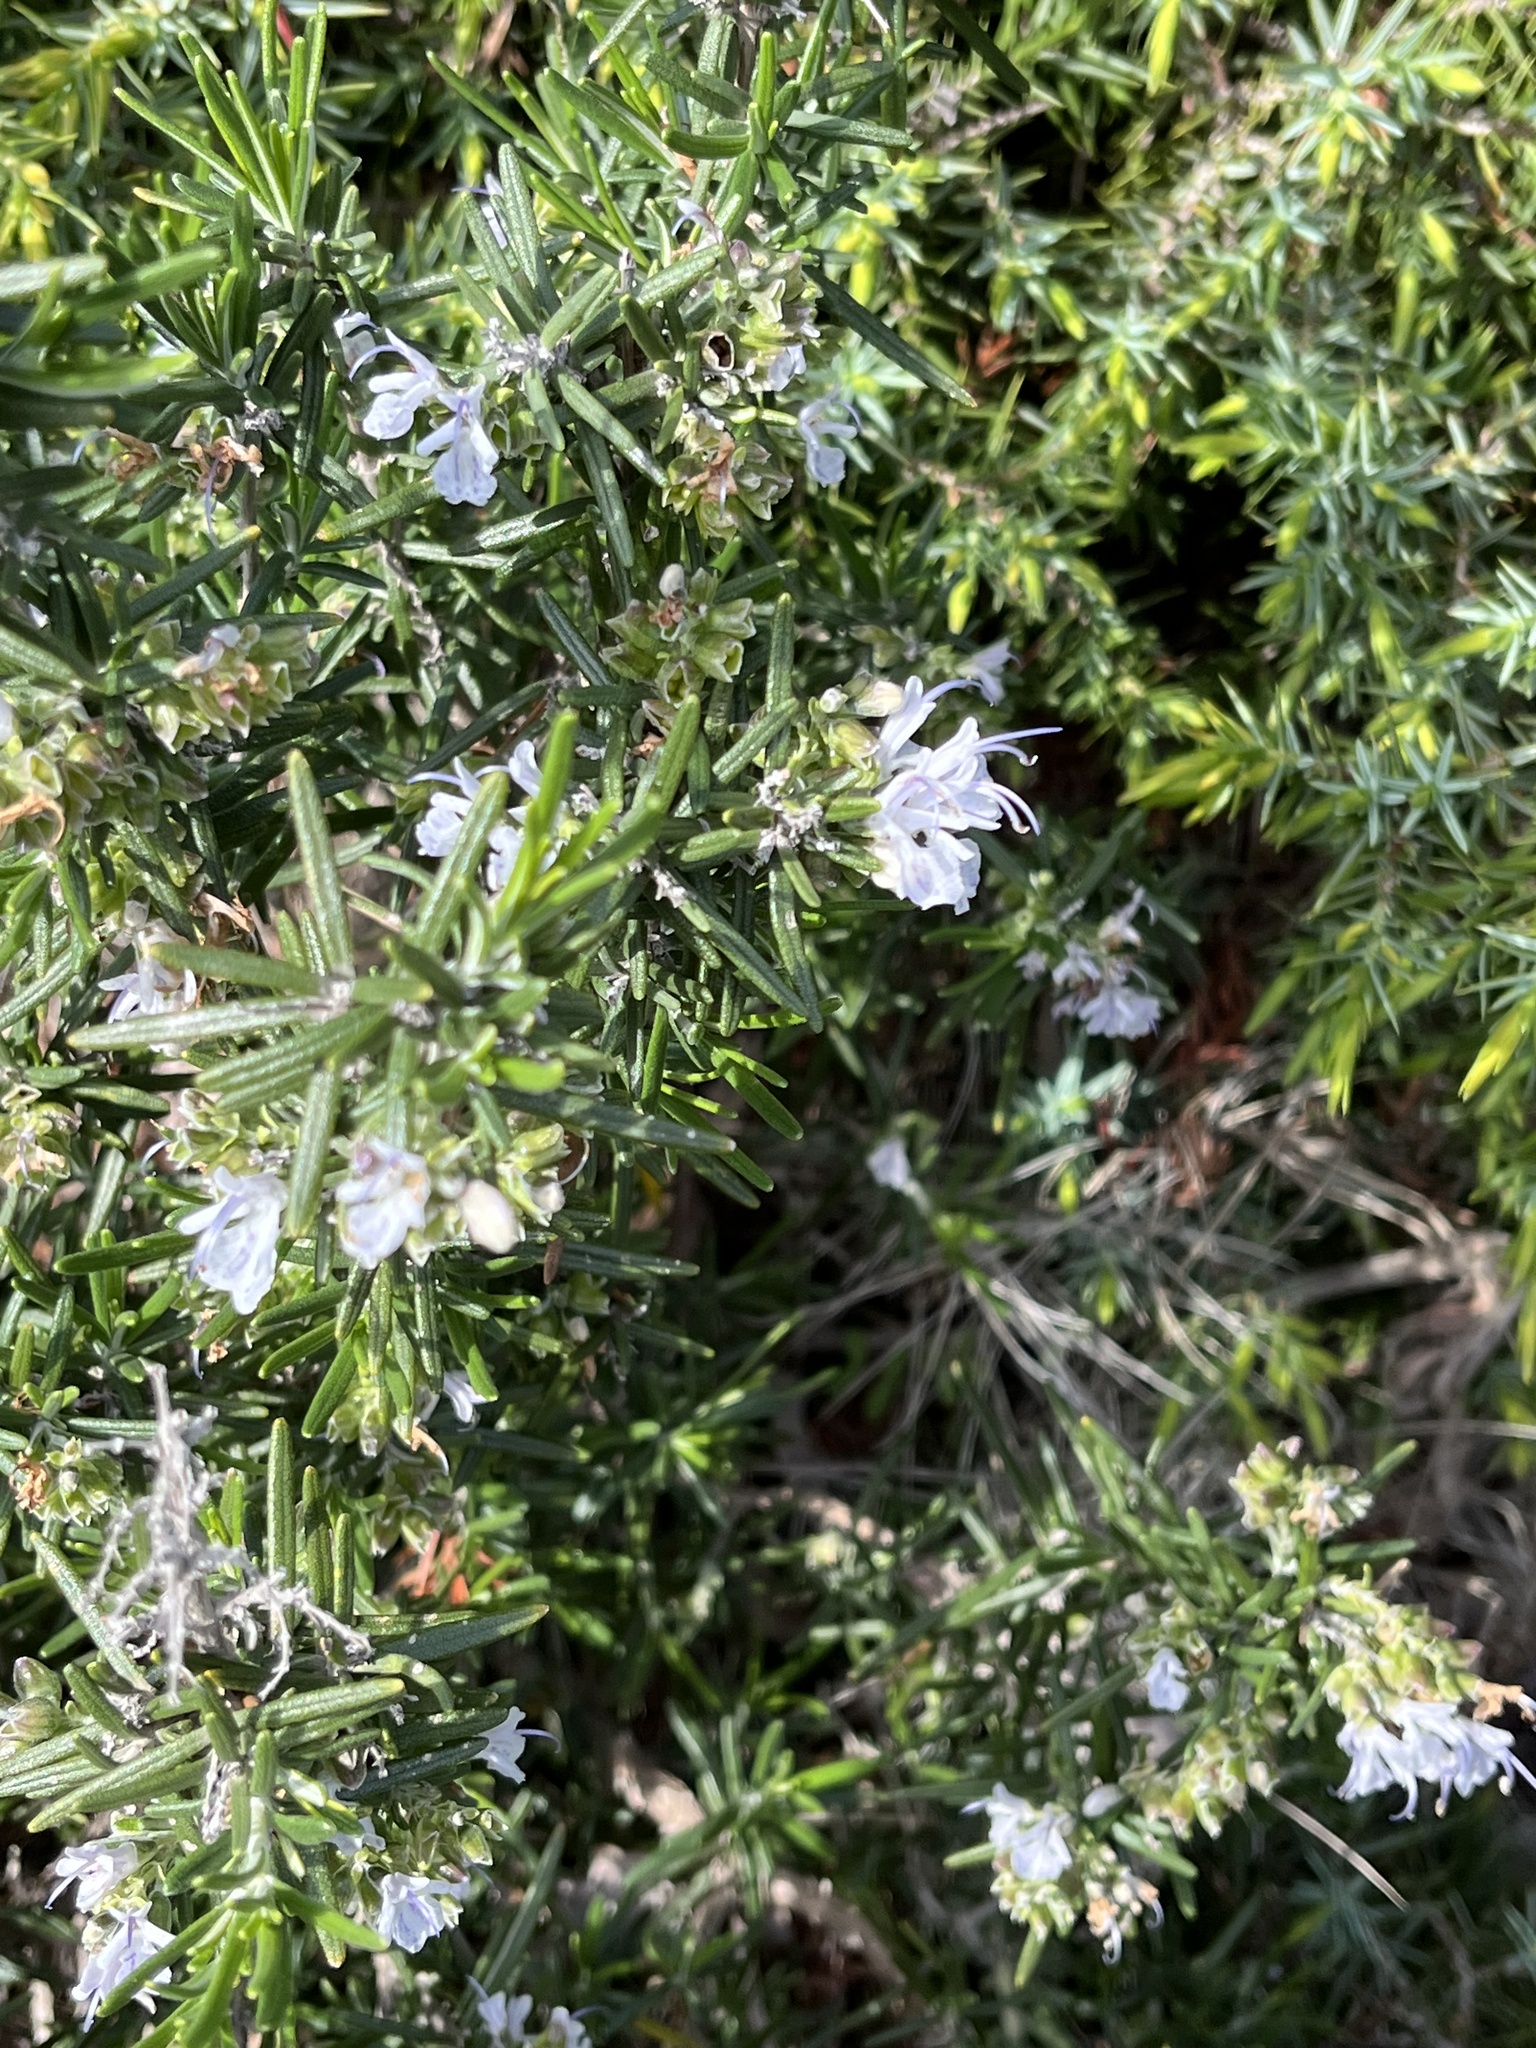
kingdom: Plantae
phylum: Tracheophyta
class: Magnoliopsida
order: Lamiales
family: Lamiaceae
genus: Salvia
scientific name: Salvia rosmarinus
